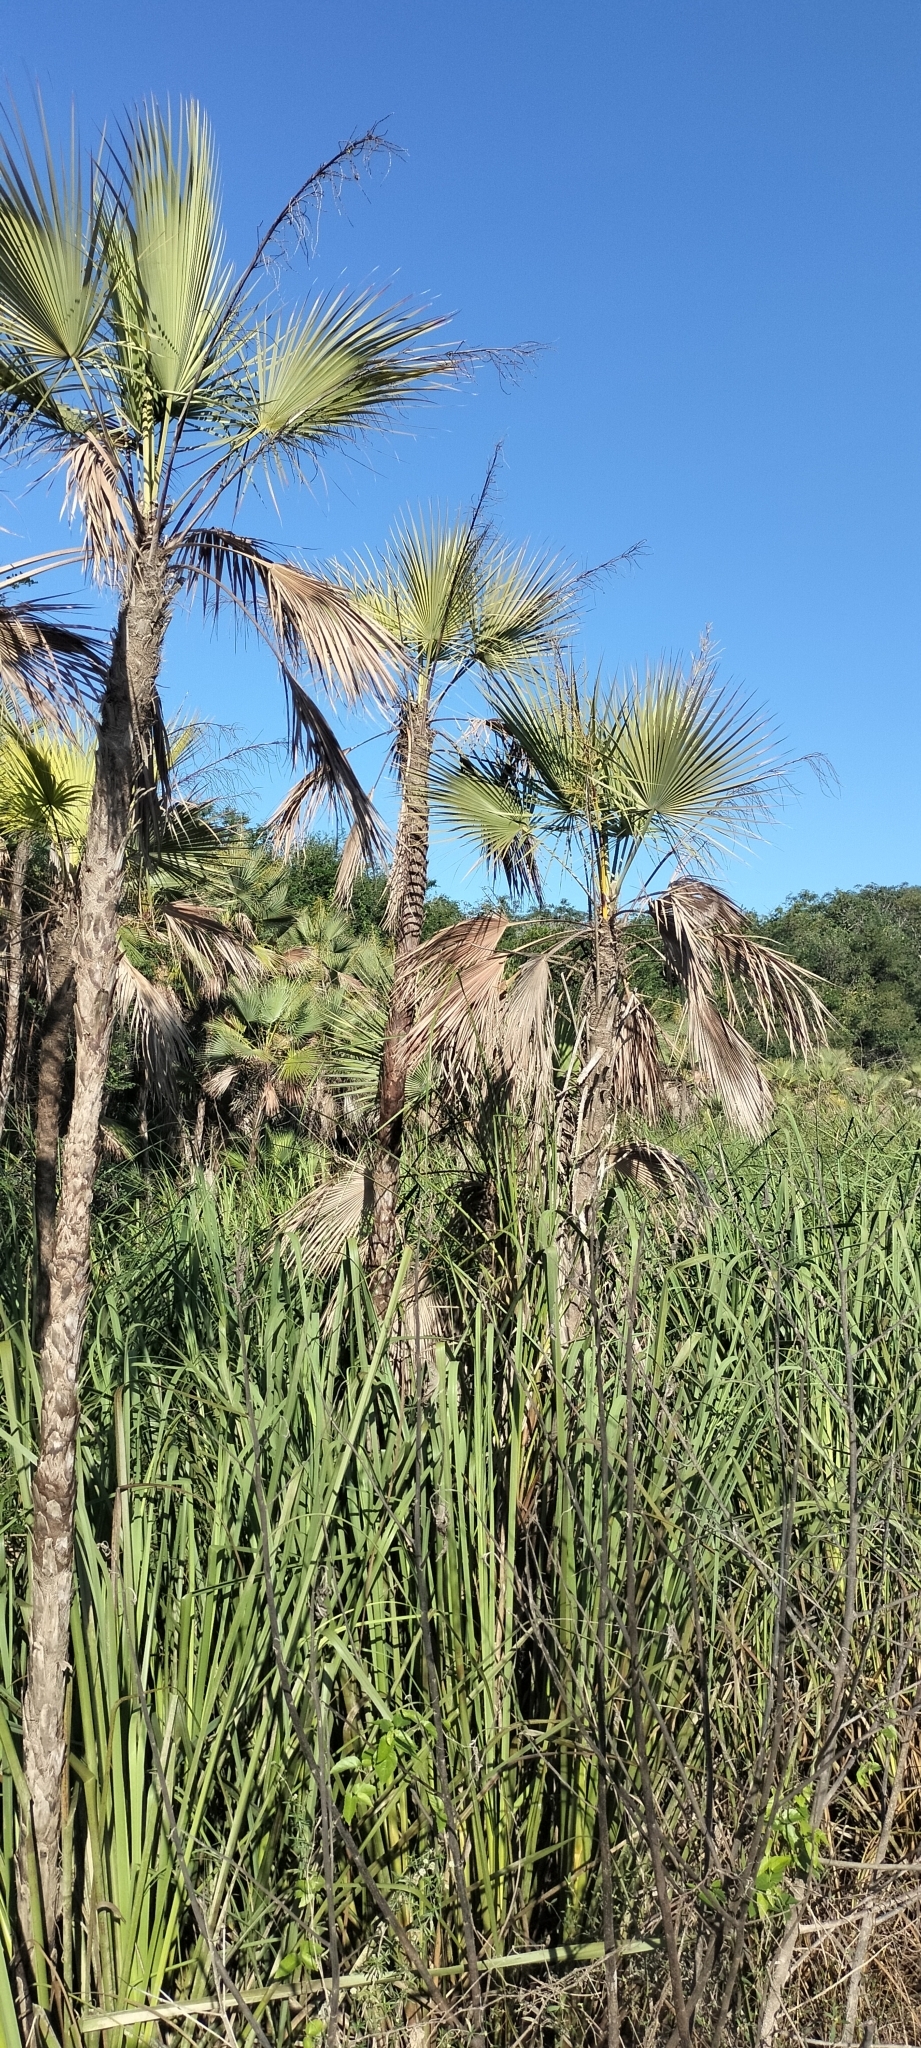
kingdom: Plantae
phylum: Tracheophyta
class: Liliopsida
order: Arecales
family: Arecaceae
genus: Acoelorraphe
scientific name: Acoelorraphe wrightii
